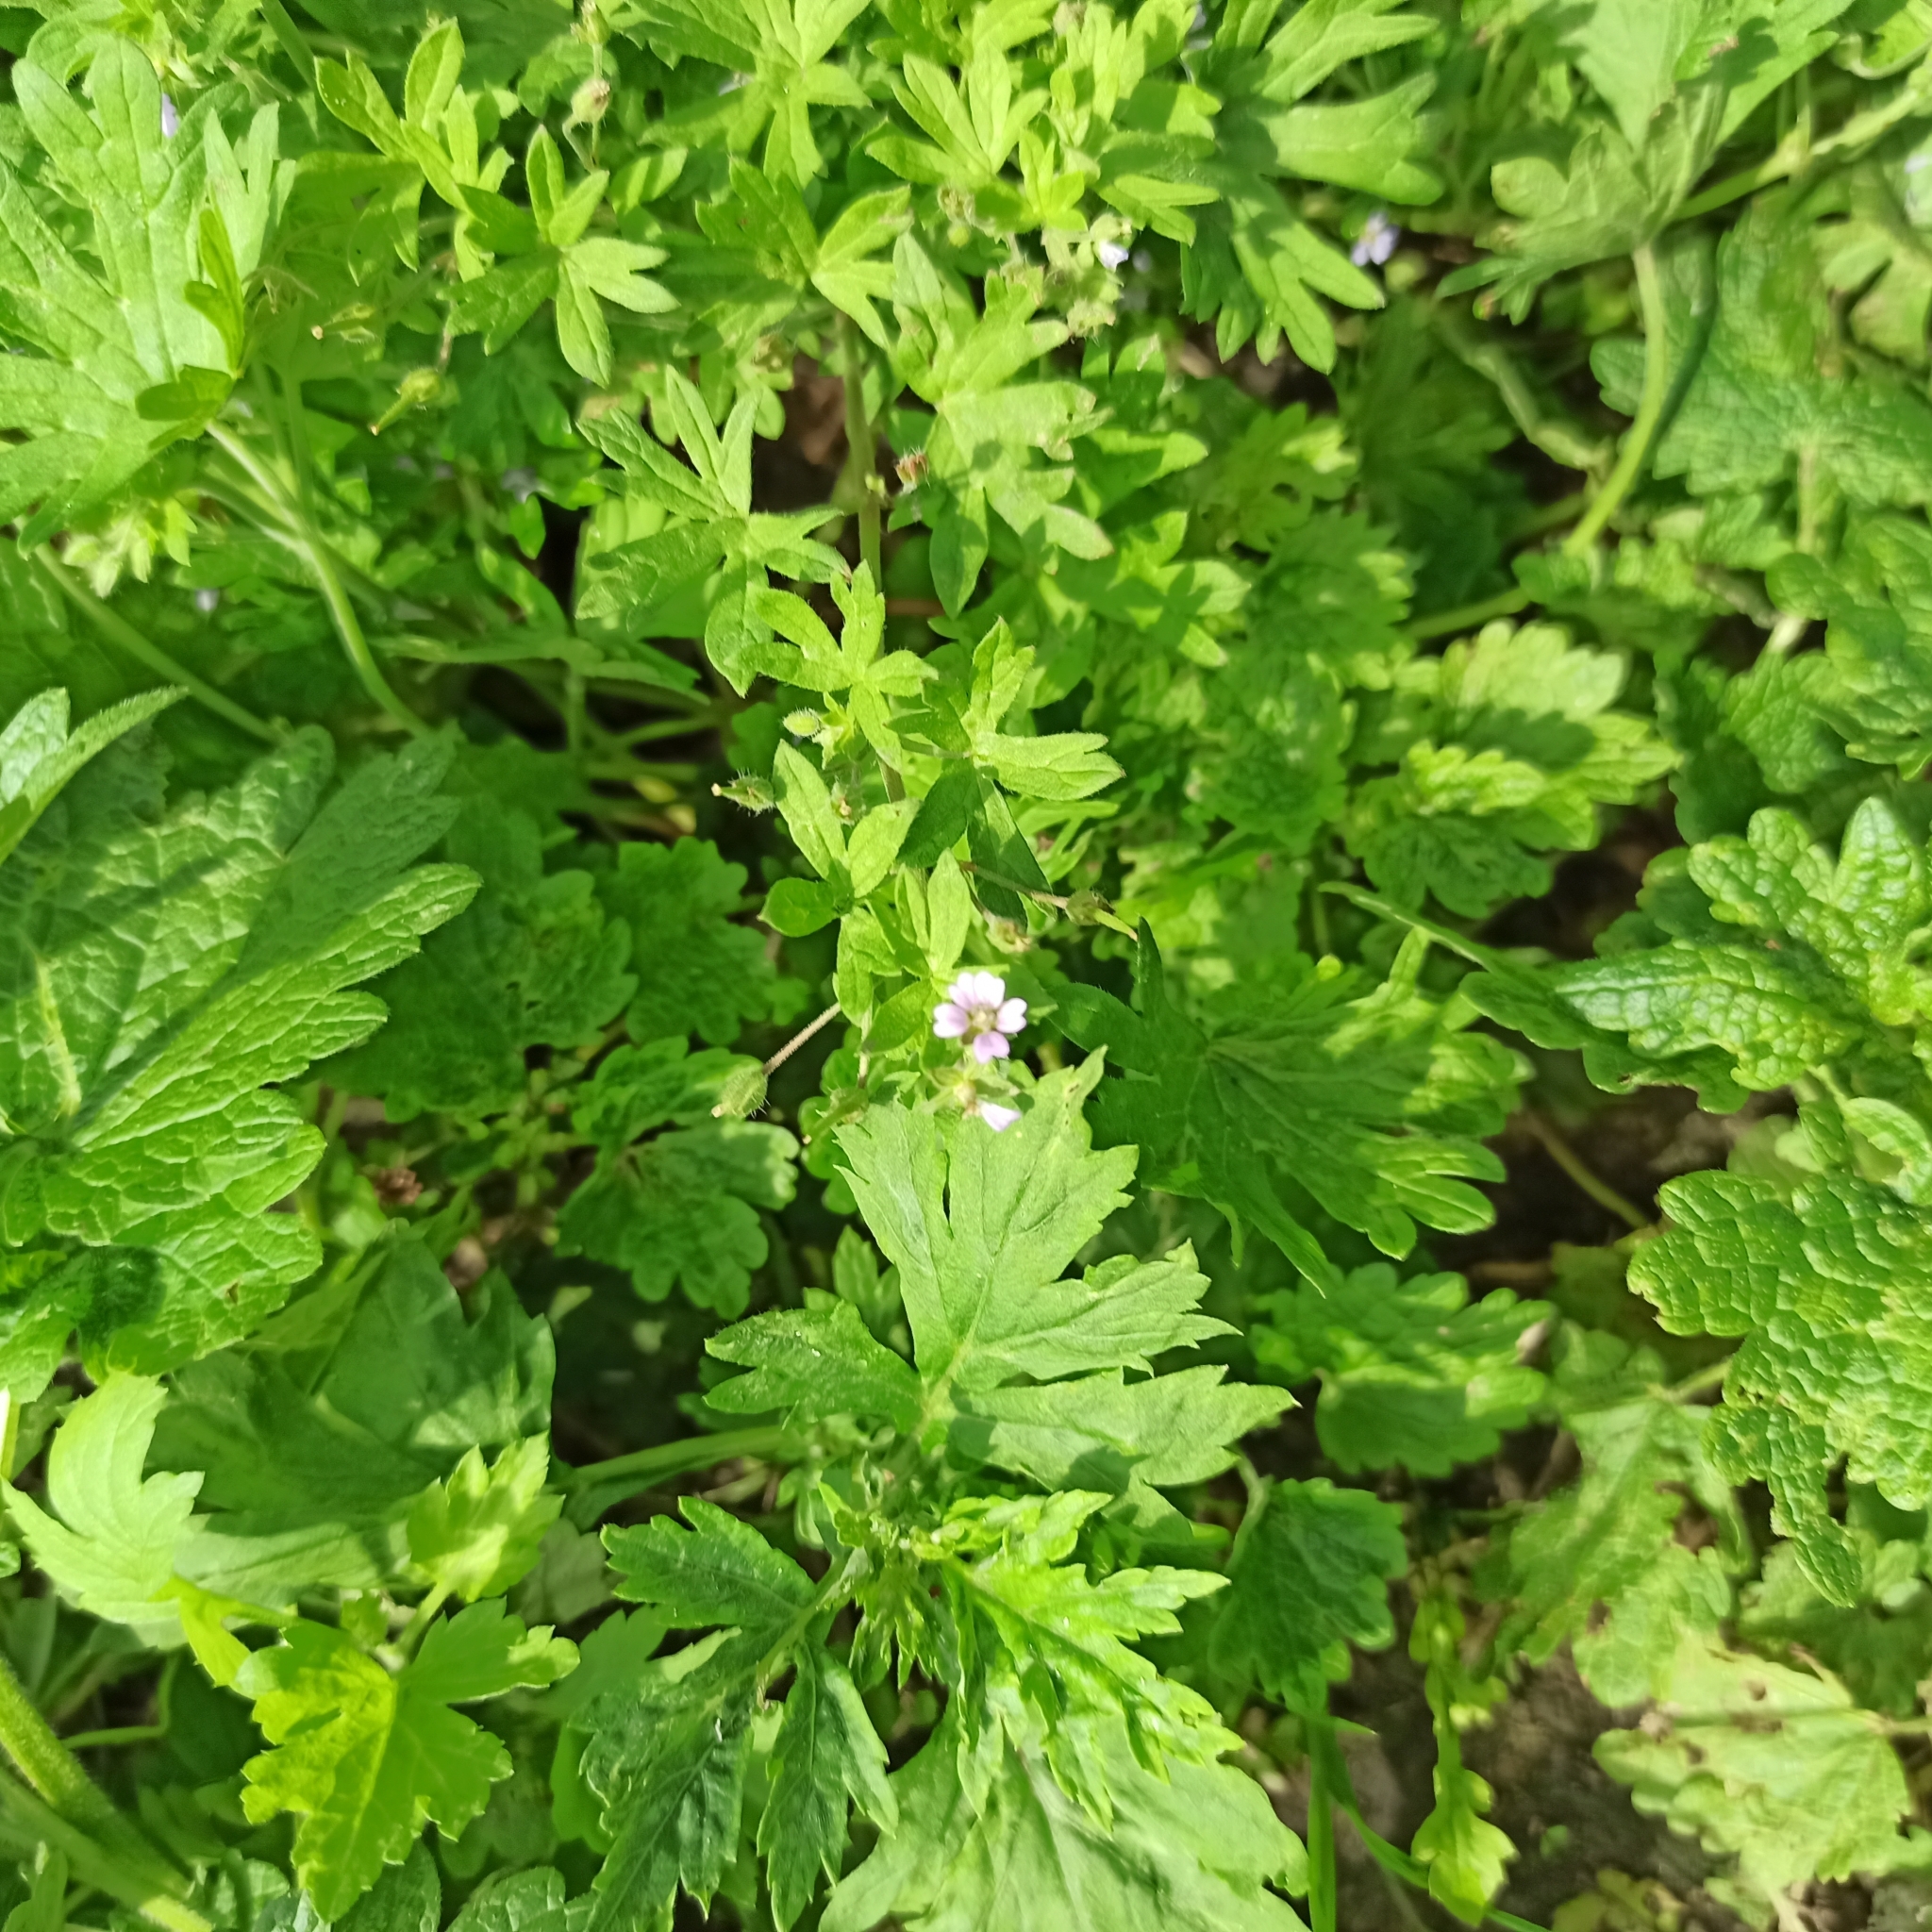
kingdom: Plantae
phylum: Tracheophyta
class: Magnoliopsida
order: Geraniales
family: Geraniaceae
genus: Geranium
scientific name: Geranium pusillum
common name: Small geranium
